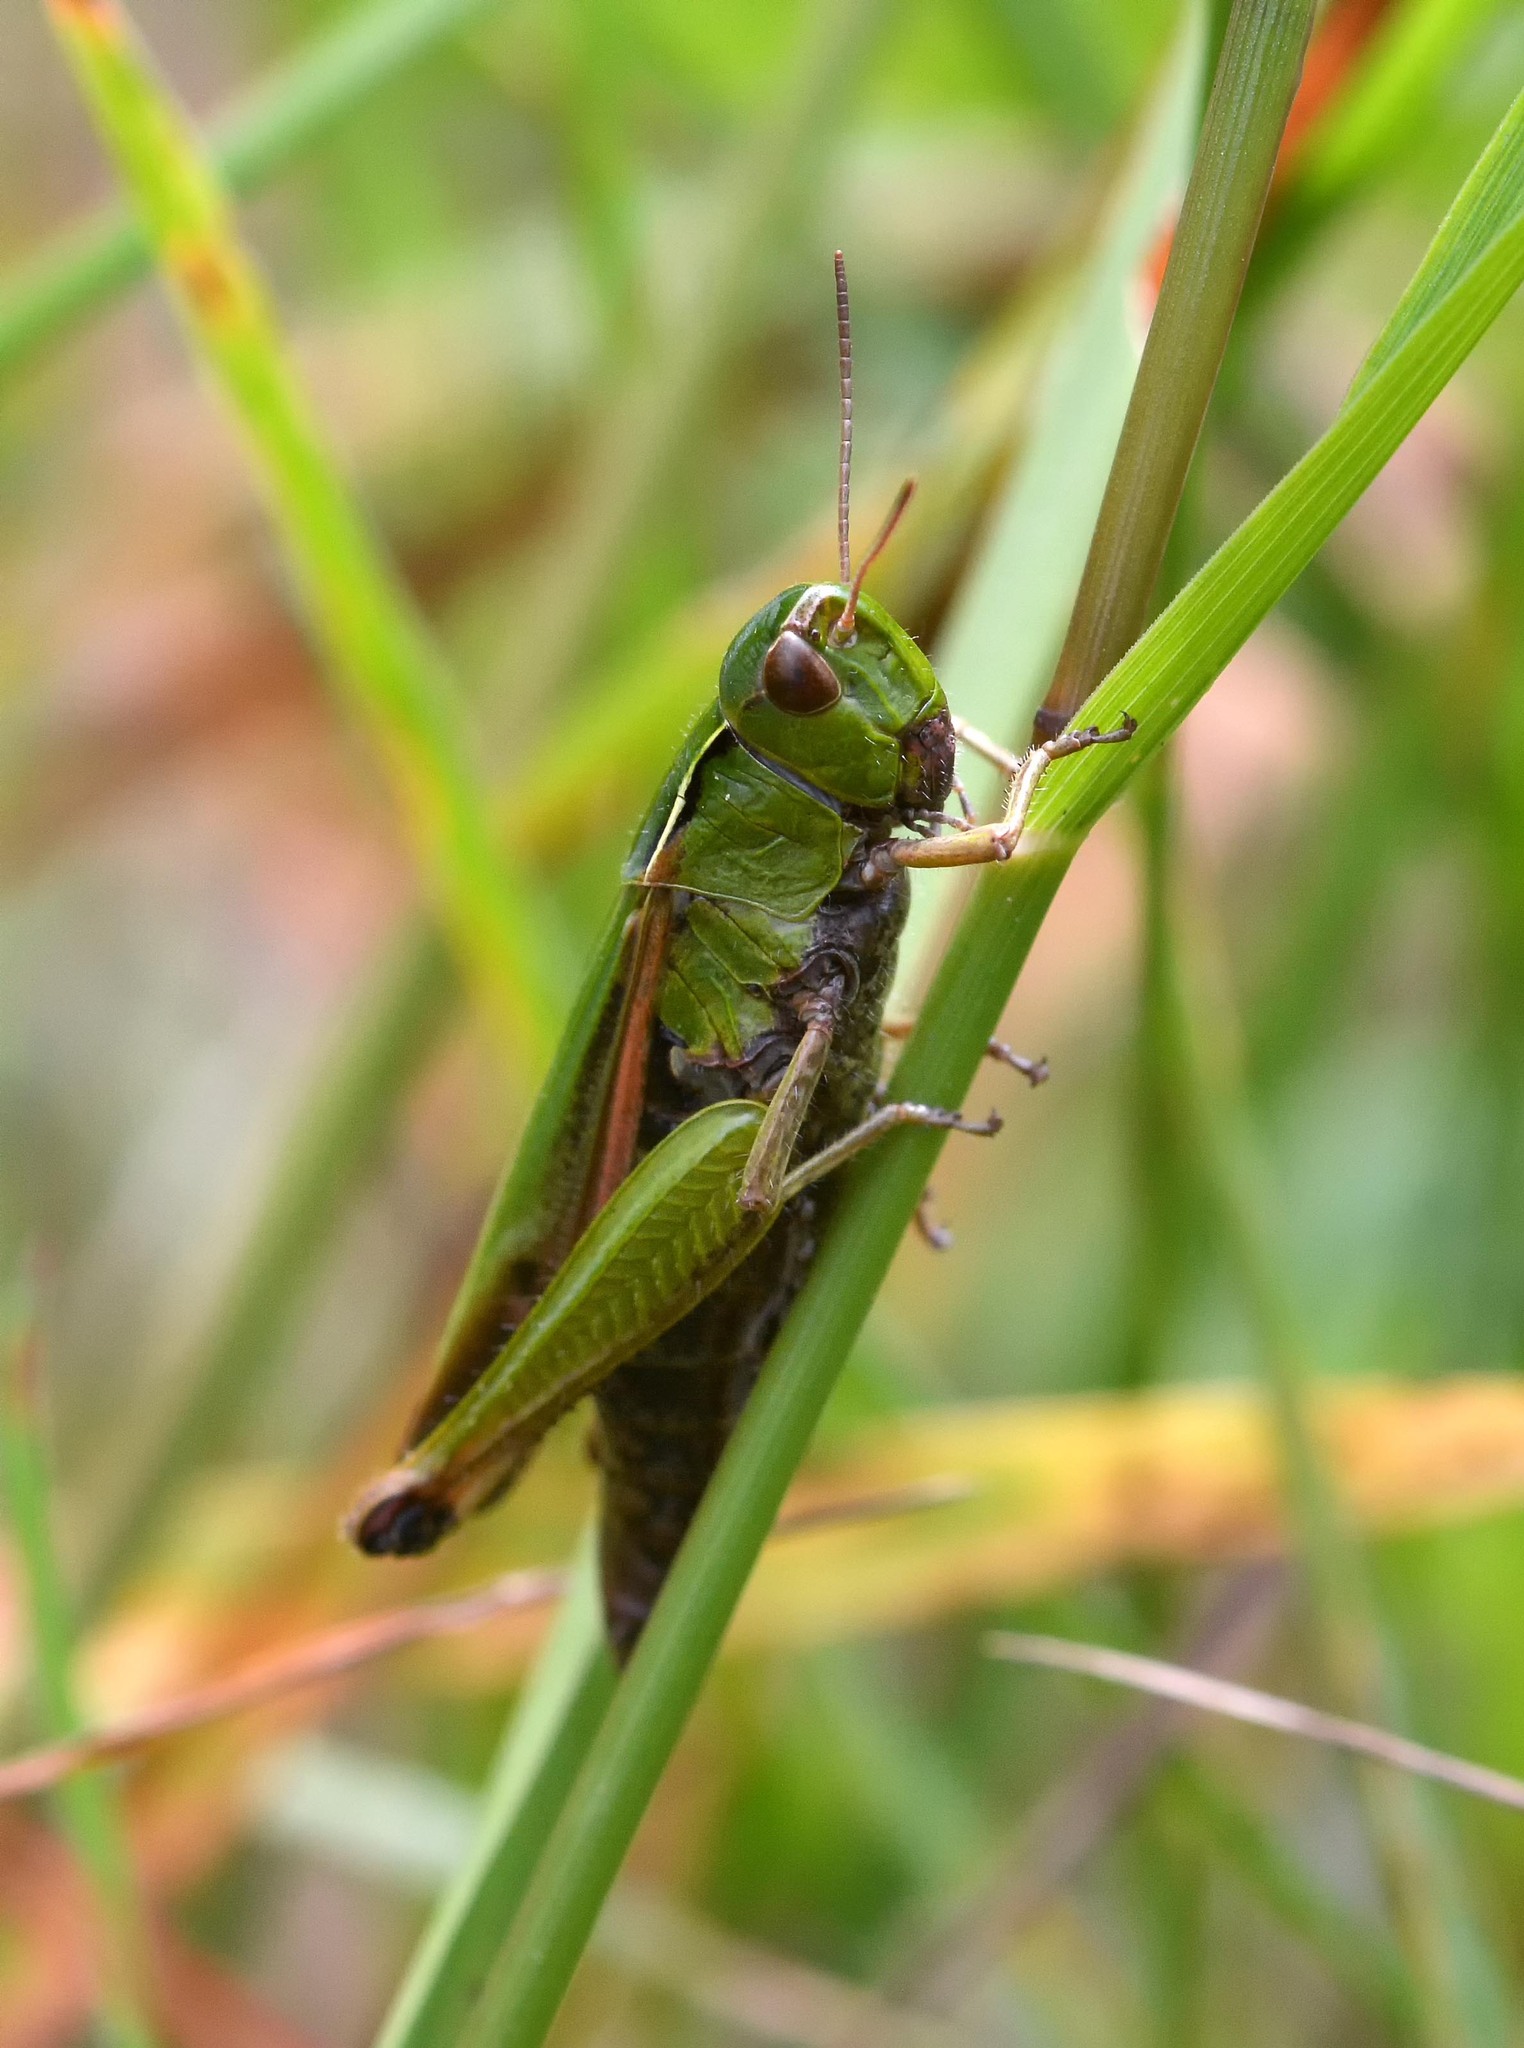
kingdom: Animalia
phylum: Arthropoda
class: Insecta
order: Orthoptera
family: Acrididae
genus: Omocestus
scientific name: Omocestus viridulus
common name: Common green grasshopper
